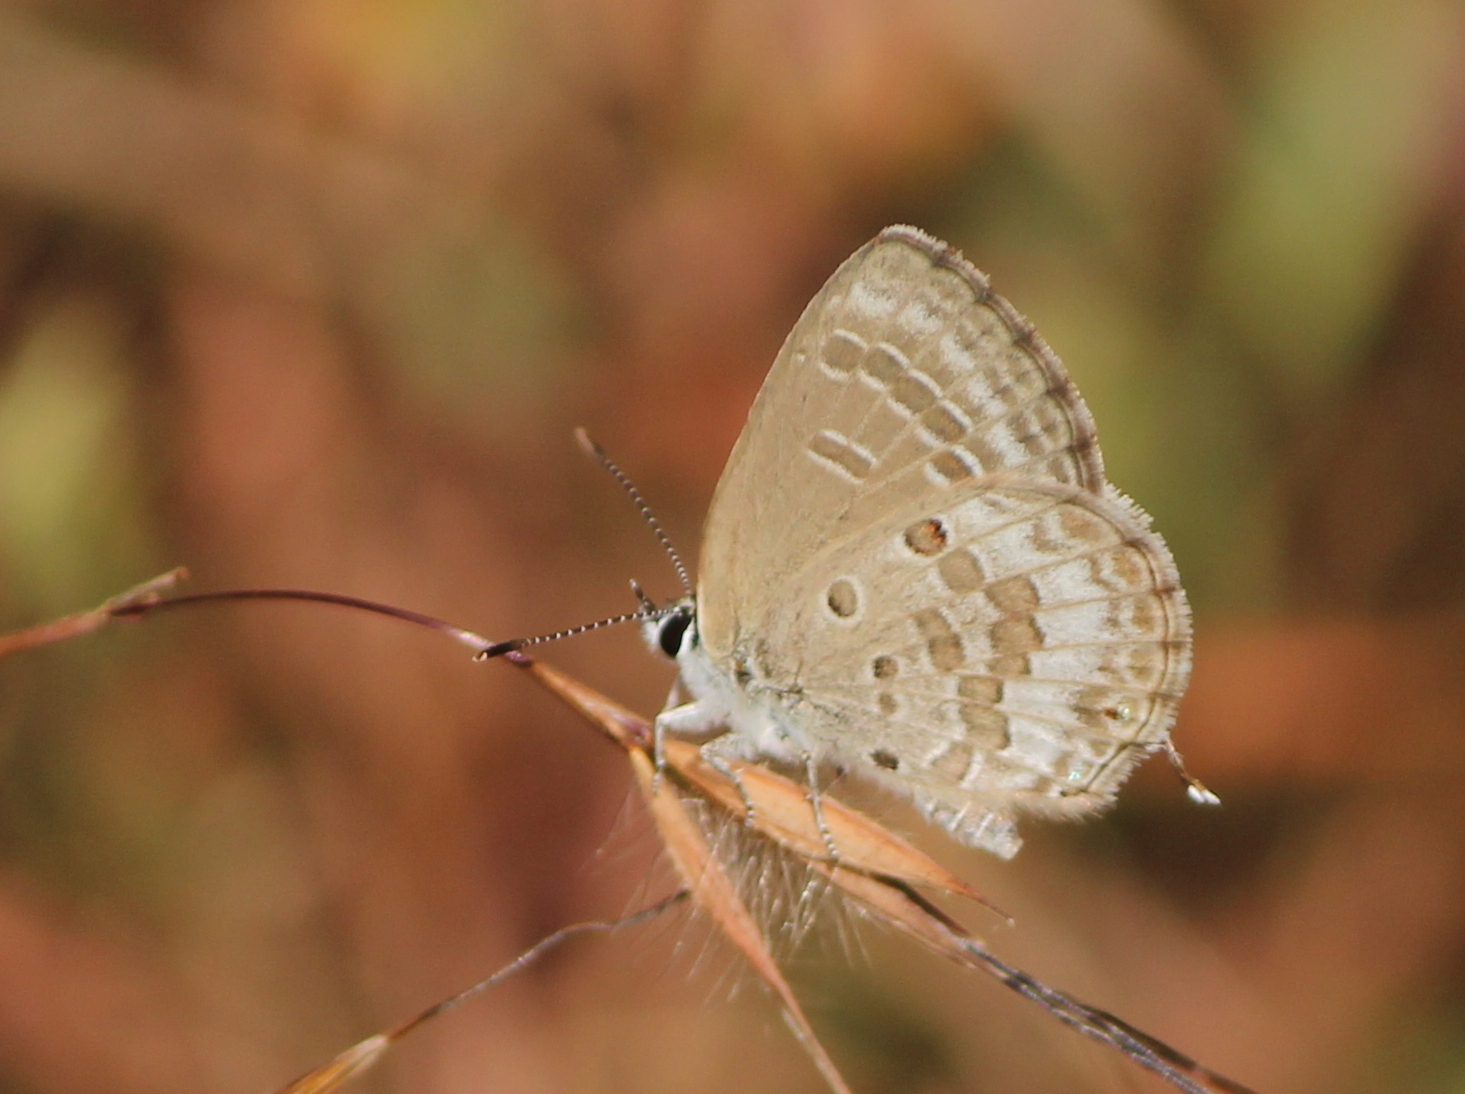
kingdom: Animalia
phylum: Arthropoda
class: Insecta
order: Lepidoptera
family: Lycaenidae
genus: Luthrodes
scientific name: Luthrodes pandava
